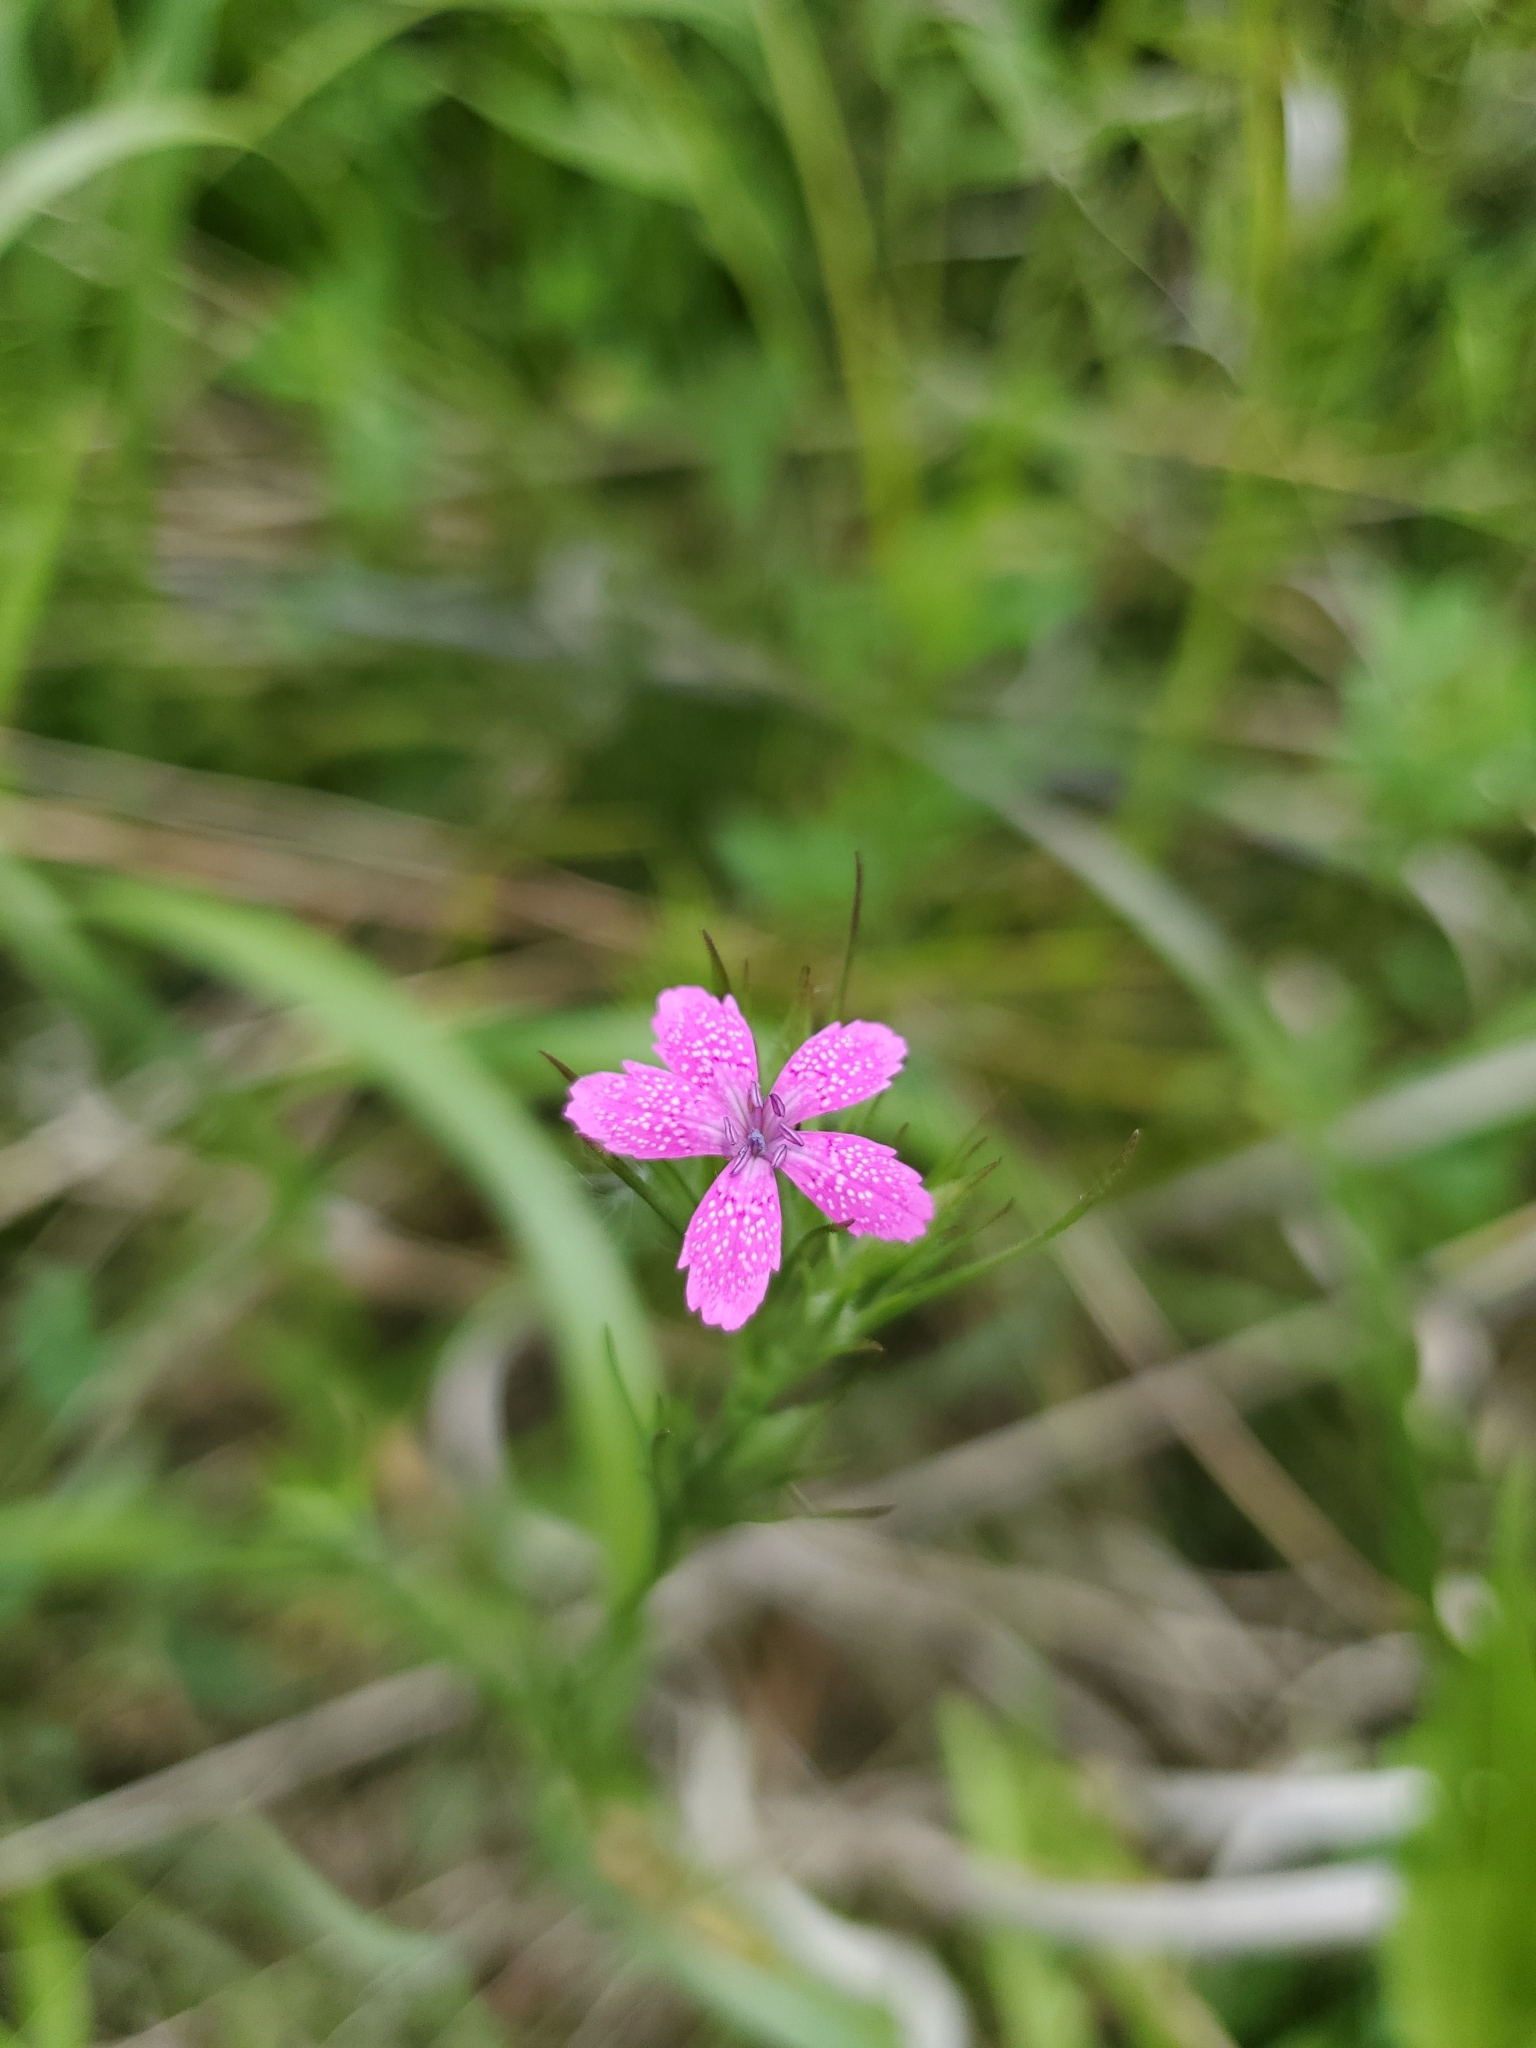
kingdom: Plantae
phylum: Tracheophyta
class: Magnoliopsida
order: Caryophyllales
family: Caryophyllaceae
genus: Dianthus
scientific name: Dianthus armeria
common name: Deptford pink
